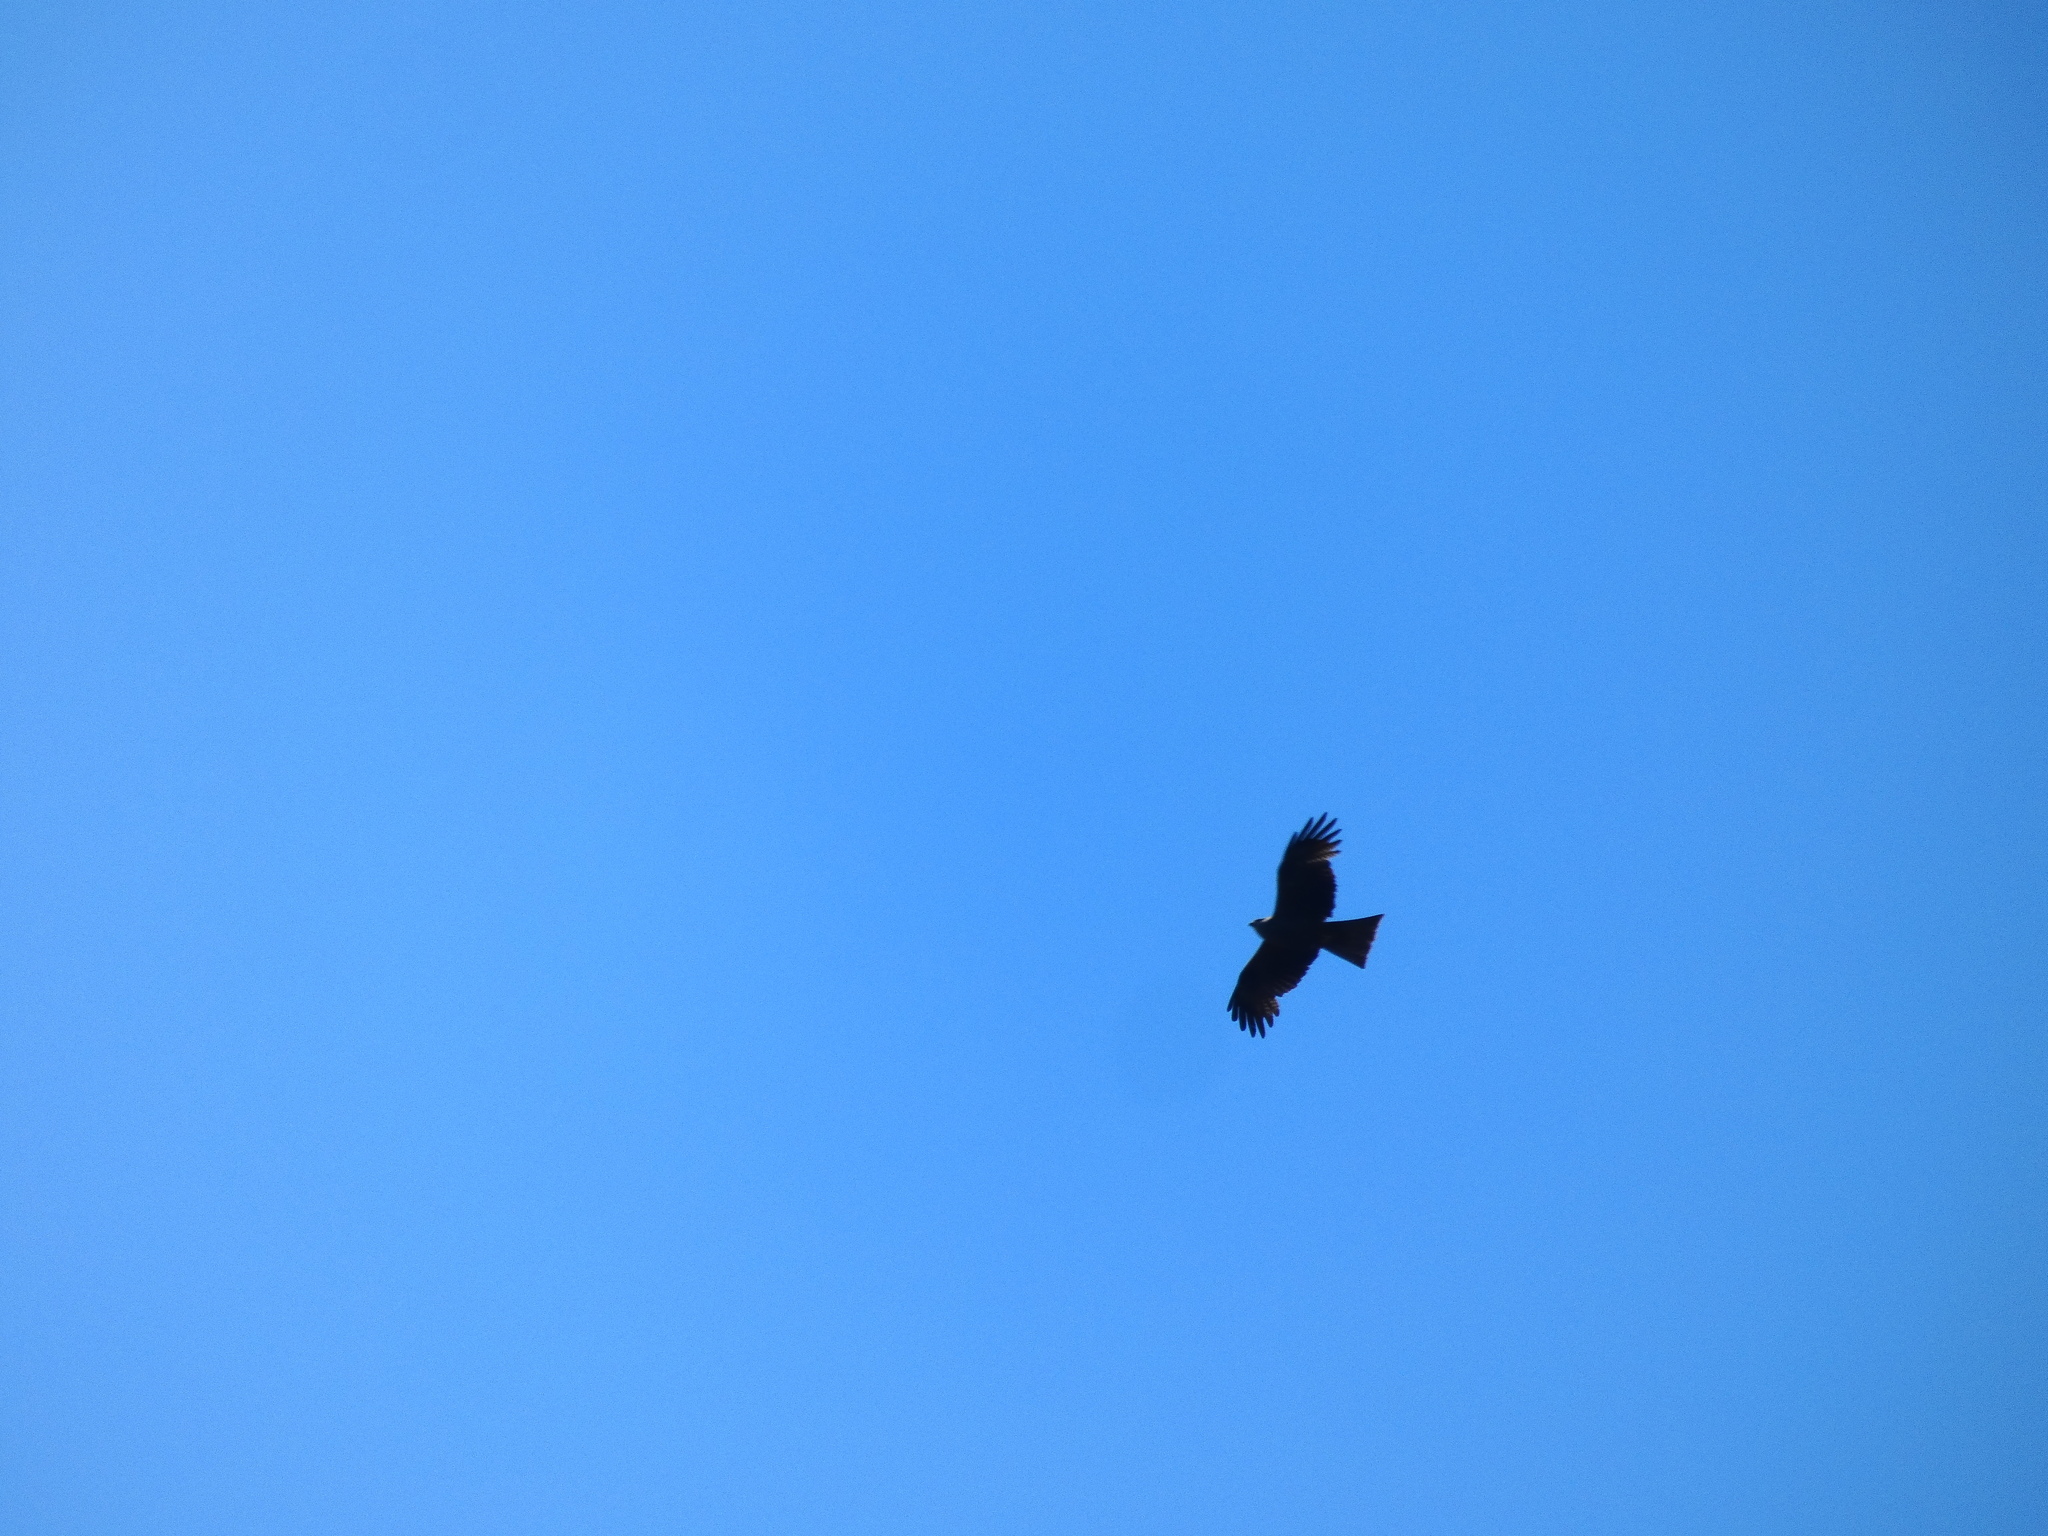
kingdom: Animalia
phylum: Chordata
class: Aves
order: Accipitriformes
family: Accipitridae
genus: Milvus
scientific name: Milvus migrans
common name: Black kite
